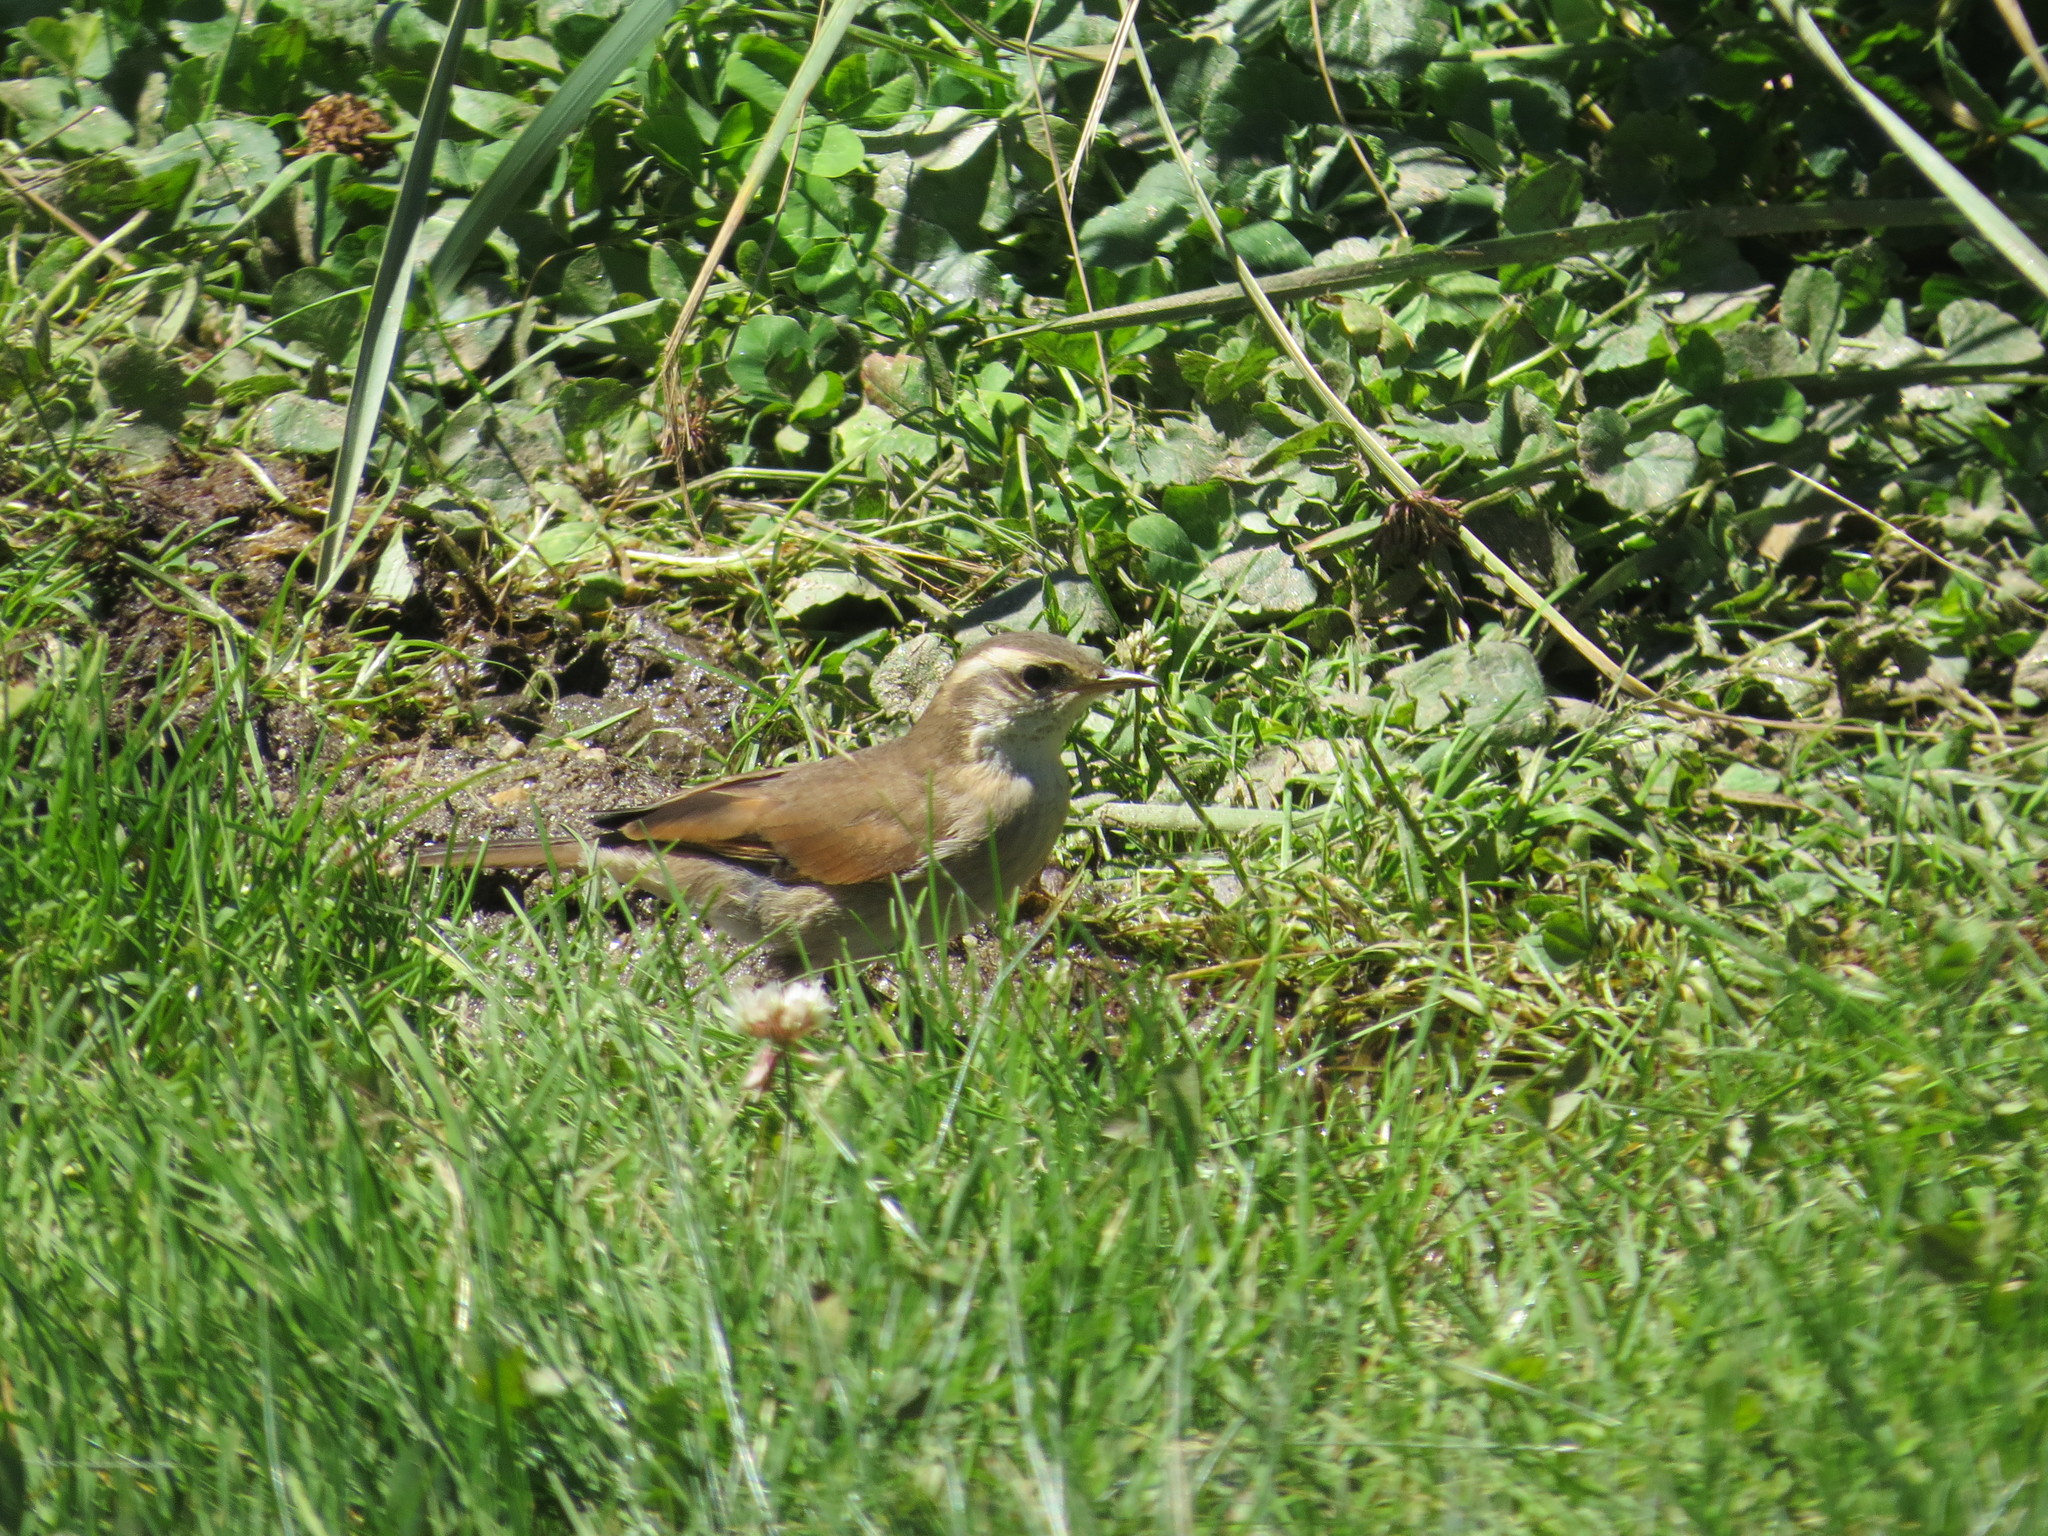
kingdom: Animalia
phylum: Chordata
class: Aves
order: Passeriformes
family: Furnariidae
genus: Cinclodes
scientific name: Cinclodes comechingonus
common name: Cordoba cinclodes
